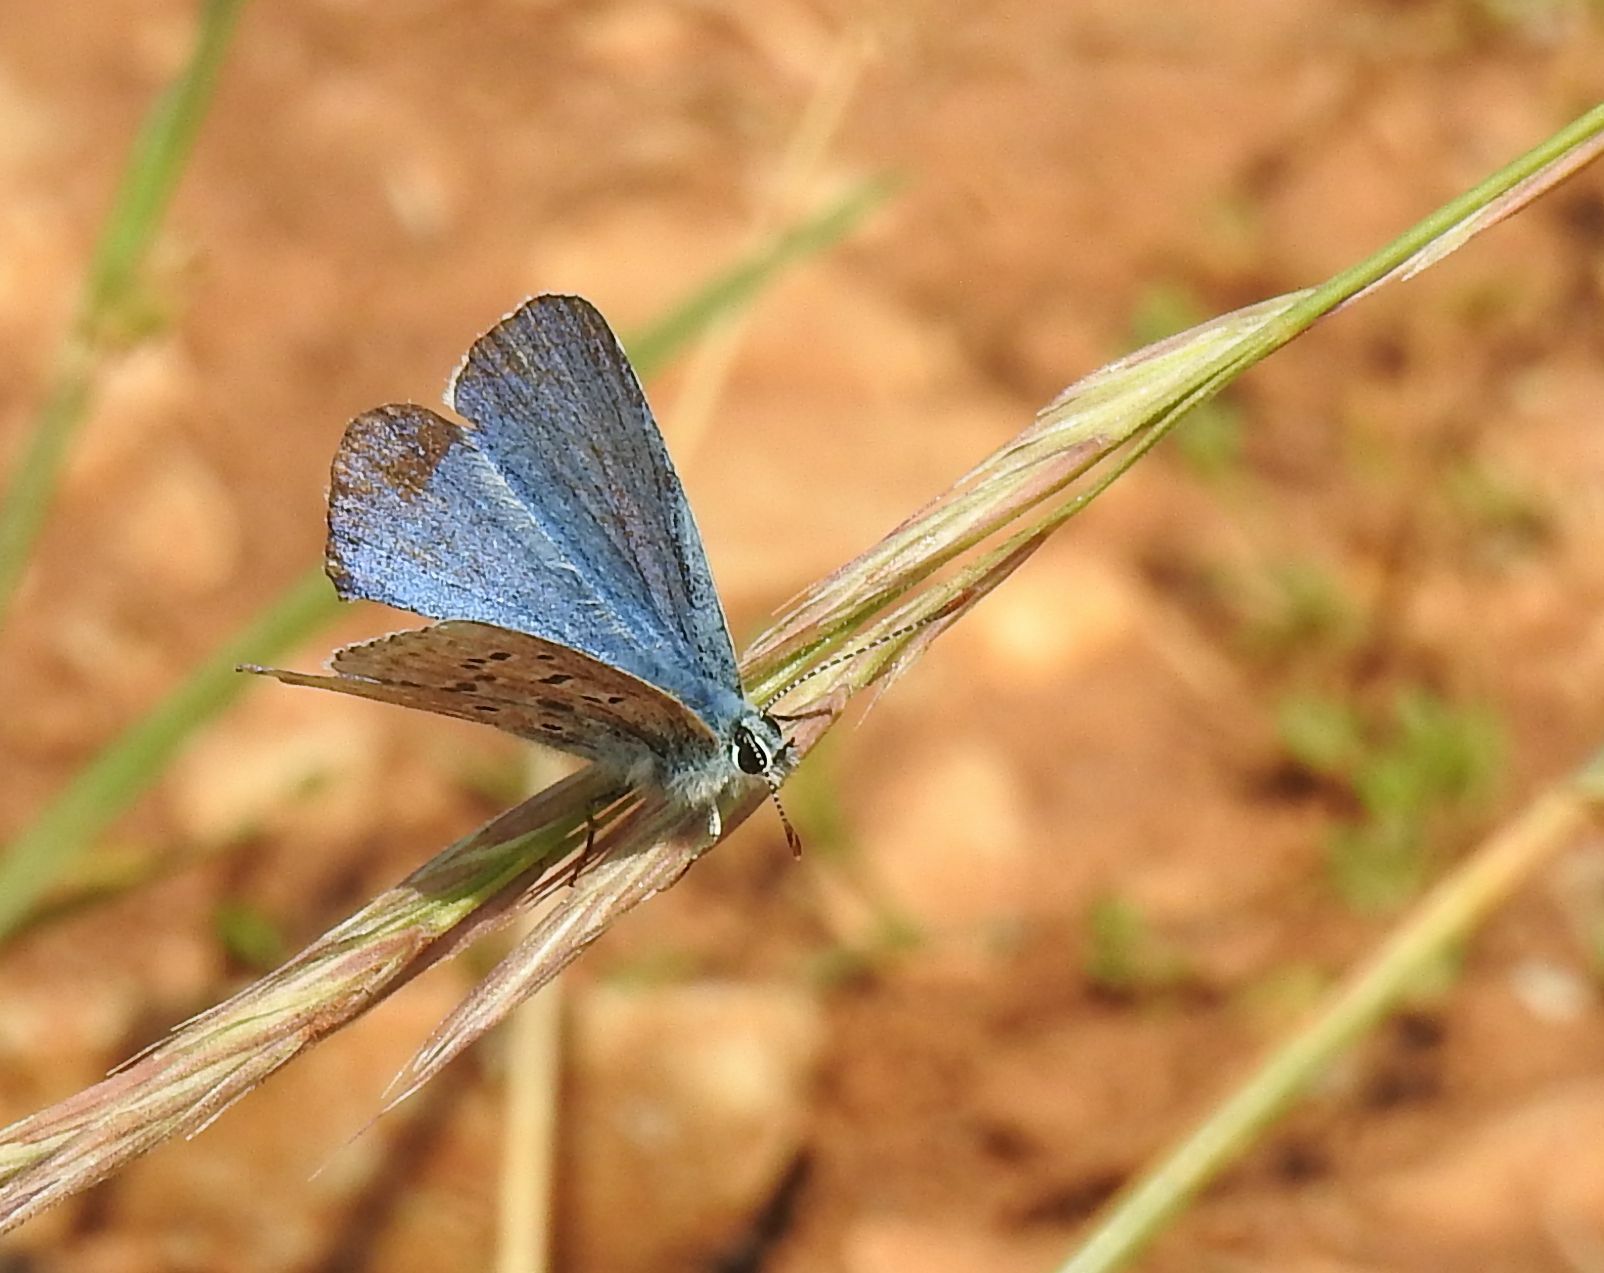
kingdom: Animalia
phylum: Arthropoda
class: Insecta
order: Lepidoptera
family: Lycaenidae
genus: Lysandra
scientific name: Lysandra bellargus
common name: Adonis blue
